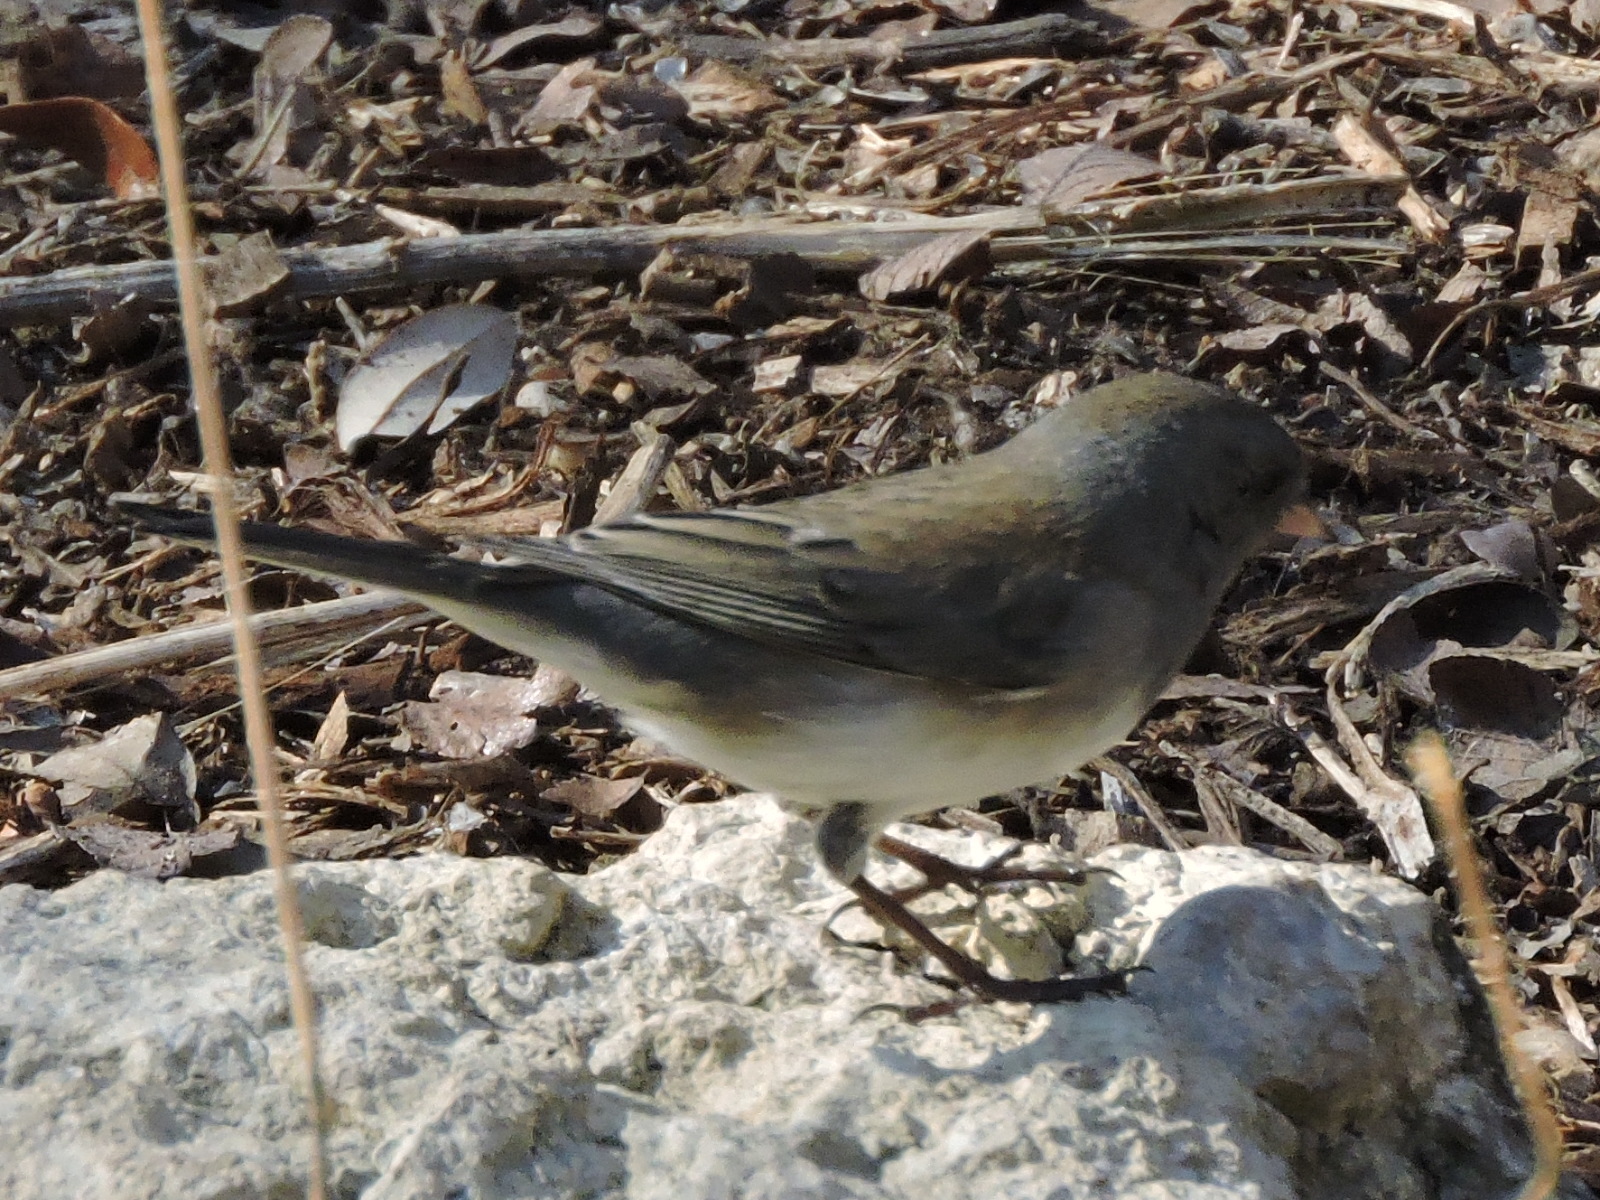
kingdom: Animalia
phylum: Chordata
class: Aves
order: Passeriformes
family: Passerellidae
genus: Junco
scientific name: Junco hyemalis
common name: Dark-eyed junco
